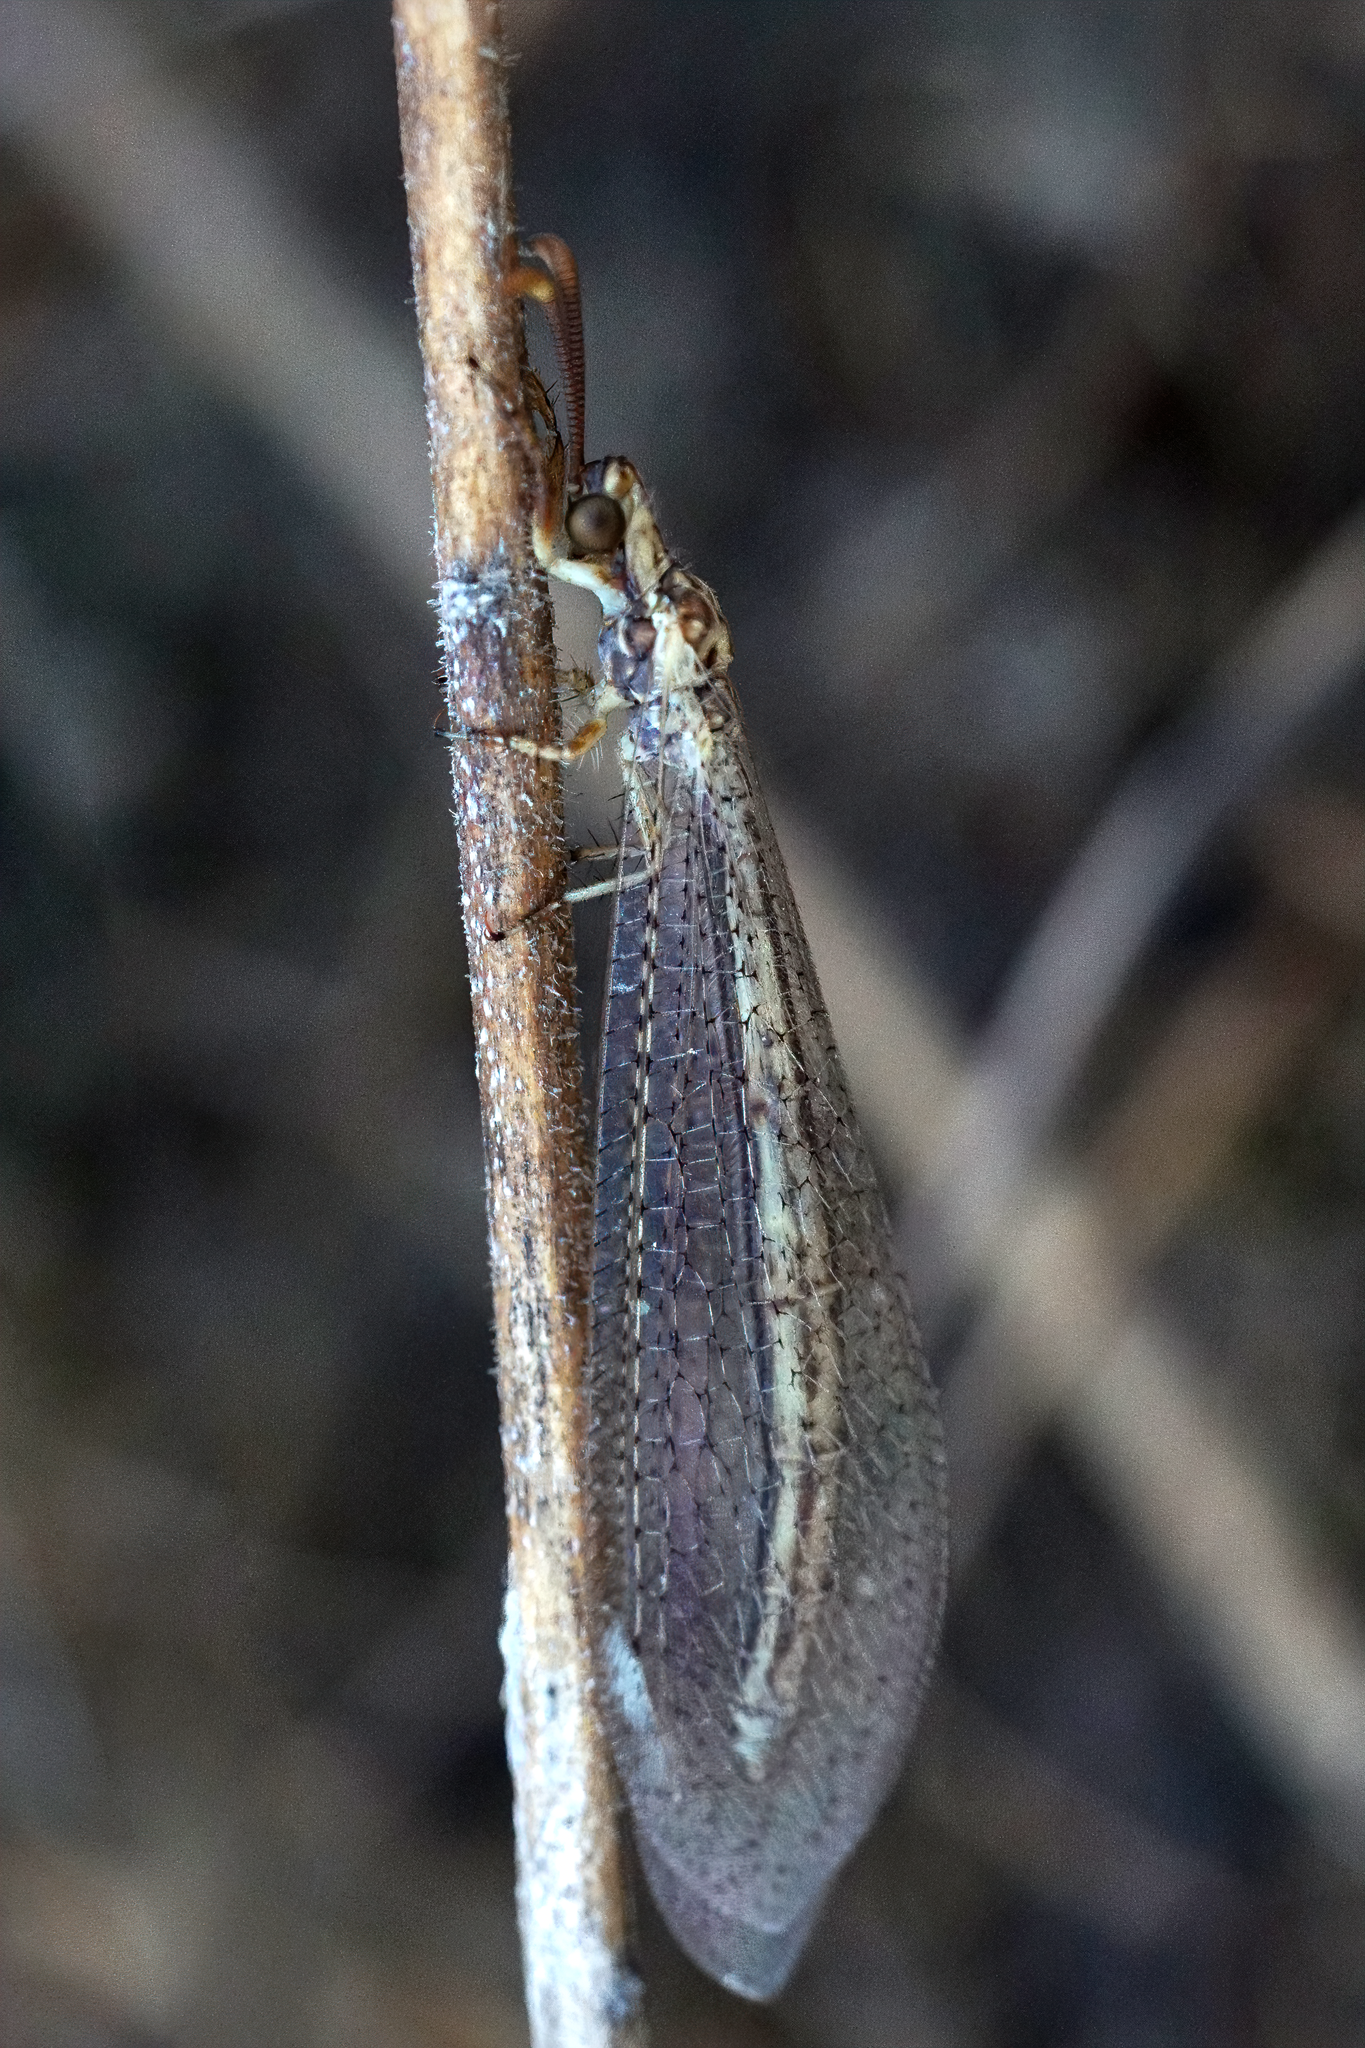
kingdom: Animalia
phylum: Arthropoda
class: Insecta
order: Neuroptera
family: Myrmeleontidae
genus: Macronemurus
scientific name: Macronemurus bilineatus
